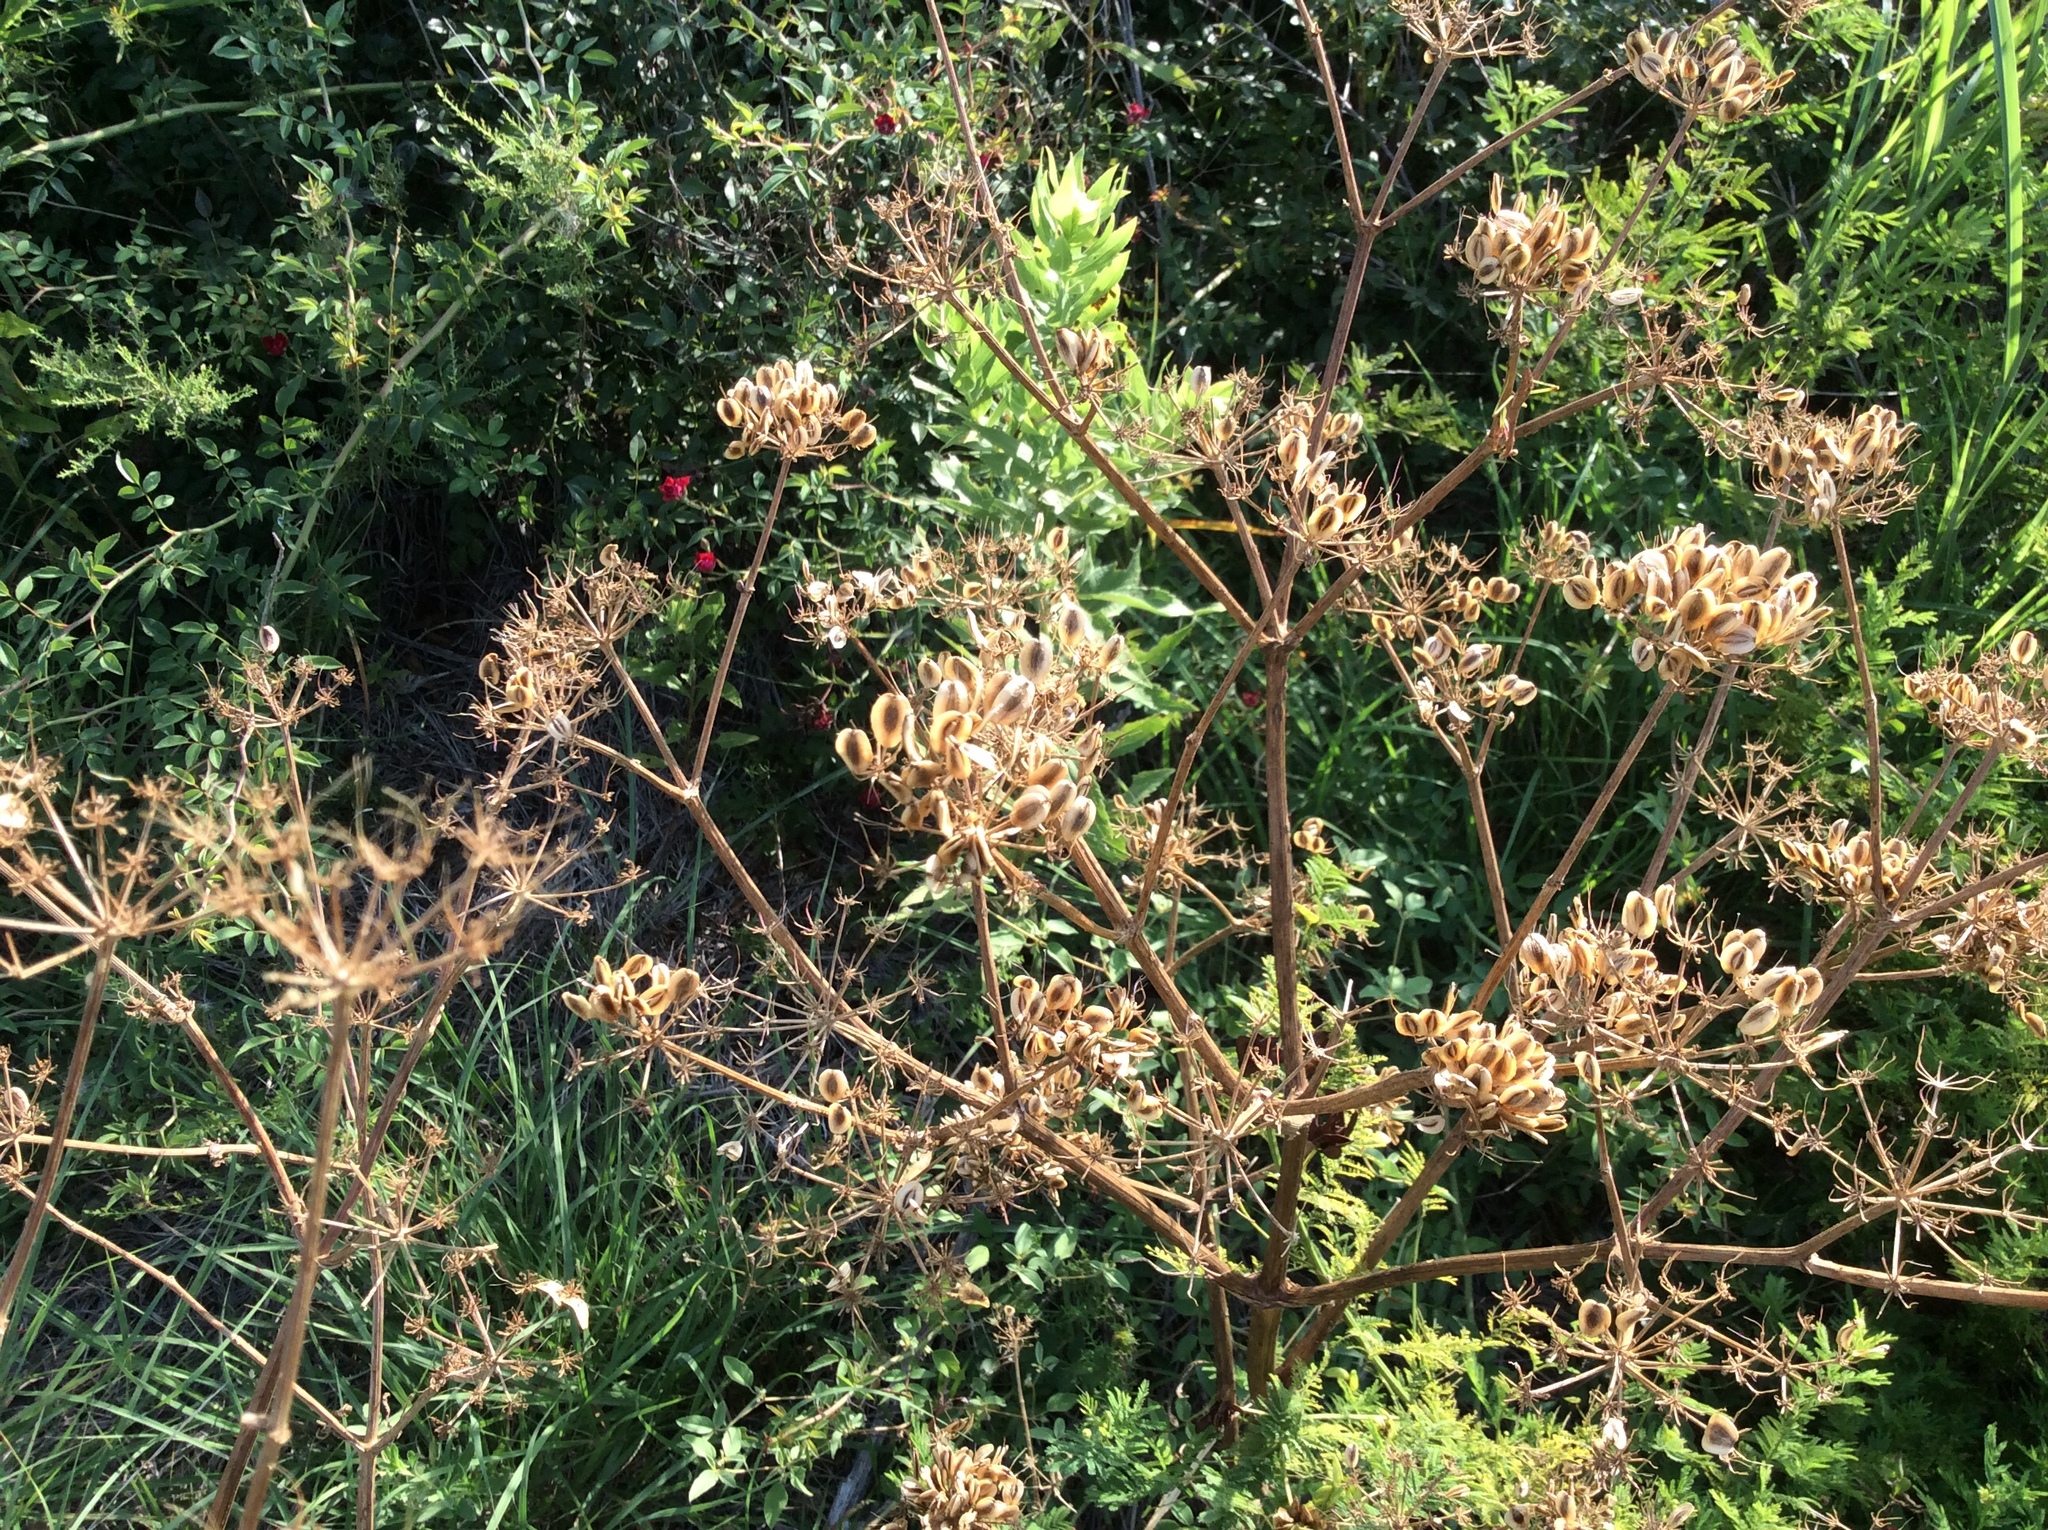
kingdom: Plantae
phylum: Tracheophyta
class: Magnoliopsida
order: Apiales
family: Apiaceae
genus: Polytaenia
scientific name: Polytaenia texana
